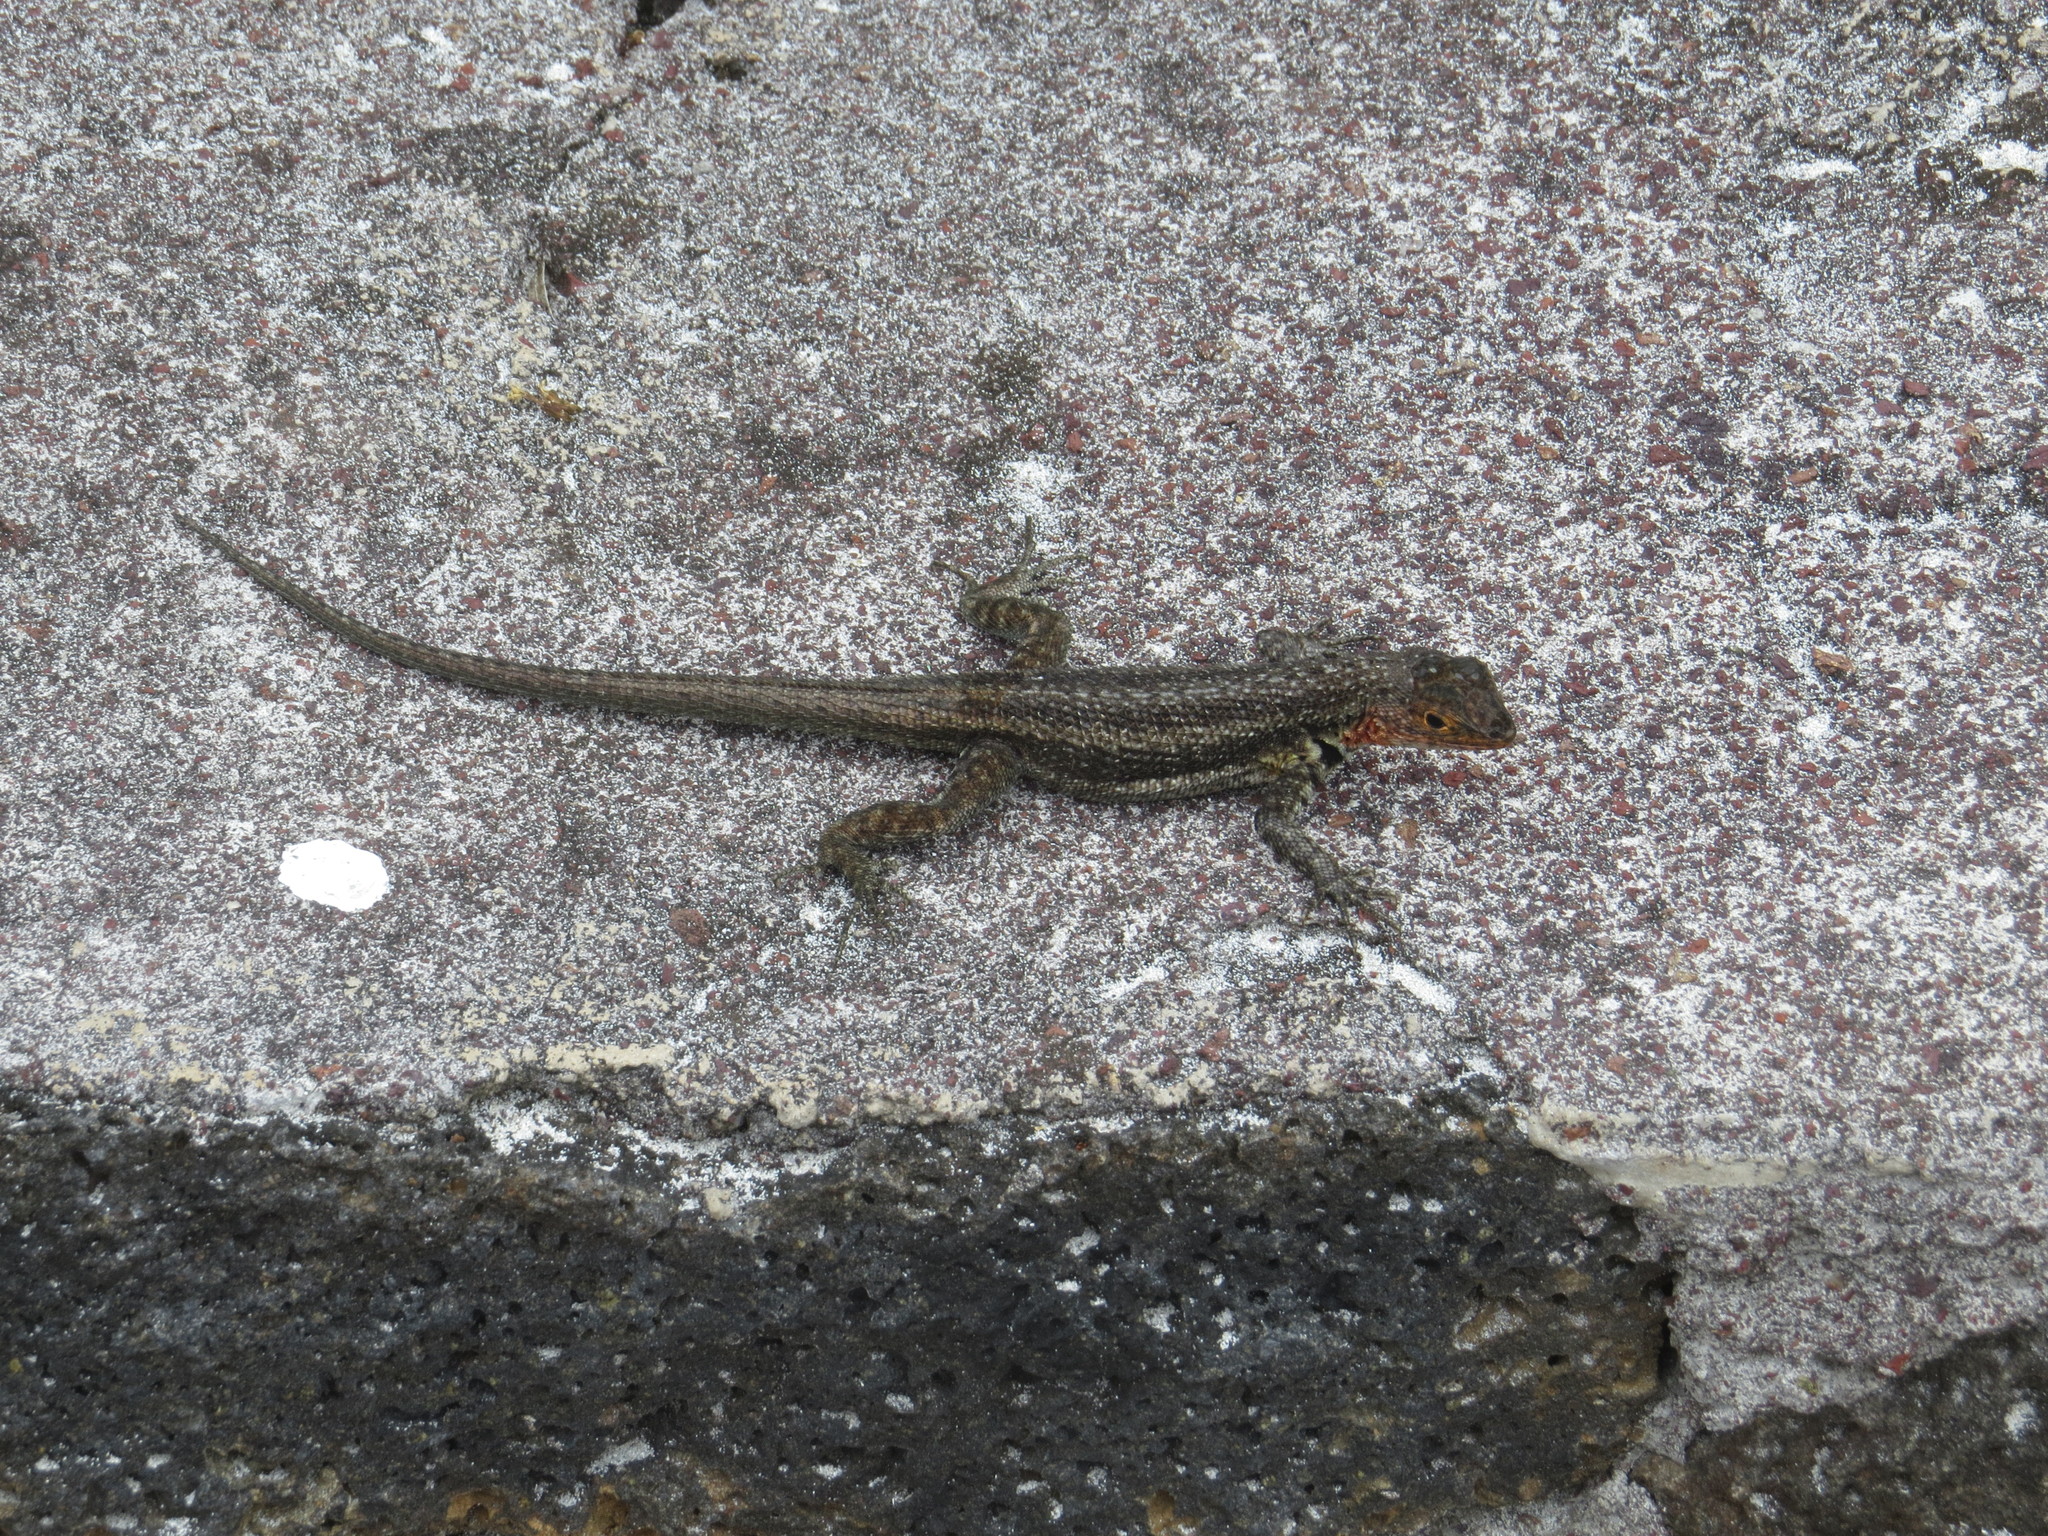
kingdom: Animalia
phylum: Chordata
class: Squamata
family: Tropiduridae
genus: Microlophus
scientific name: Microlophus indefatigabilis
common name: Galapagos lava lizard
